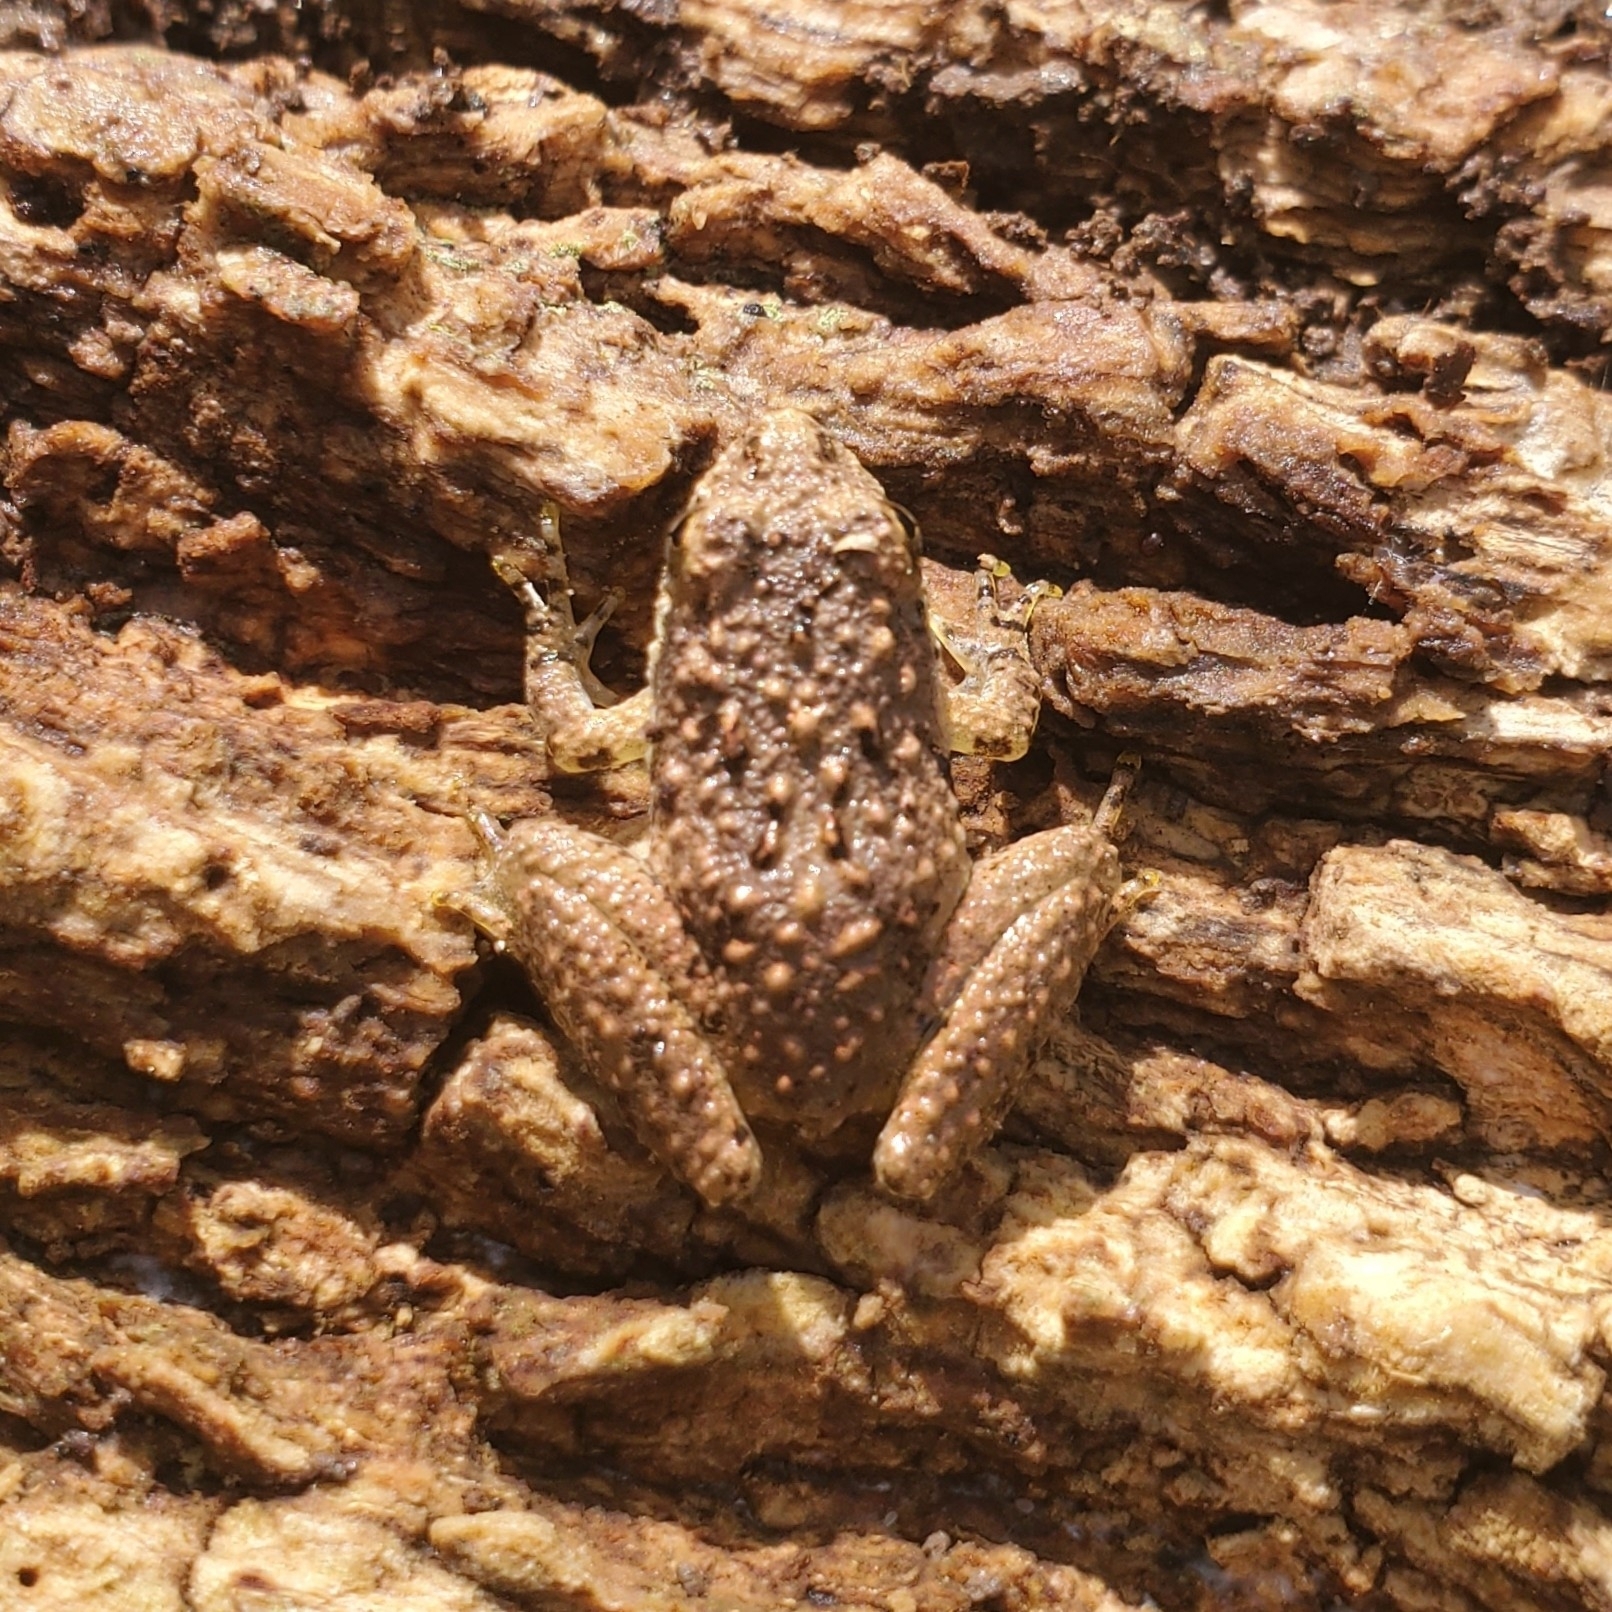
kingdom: Animalia
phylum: Chordata
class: Amphibia
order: Anura
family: Hylidae
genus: Acris
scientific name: Acris crepitans
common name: Northern cricket frog
